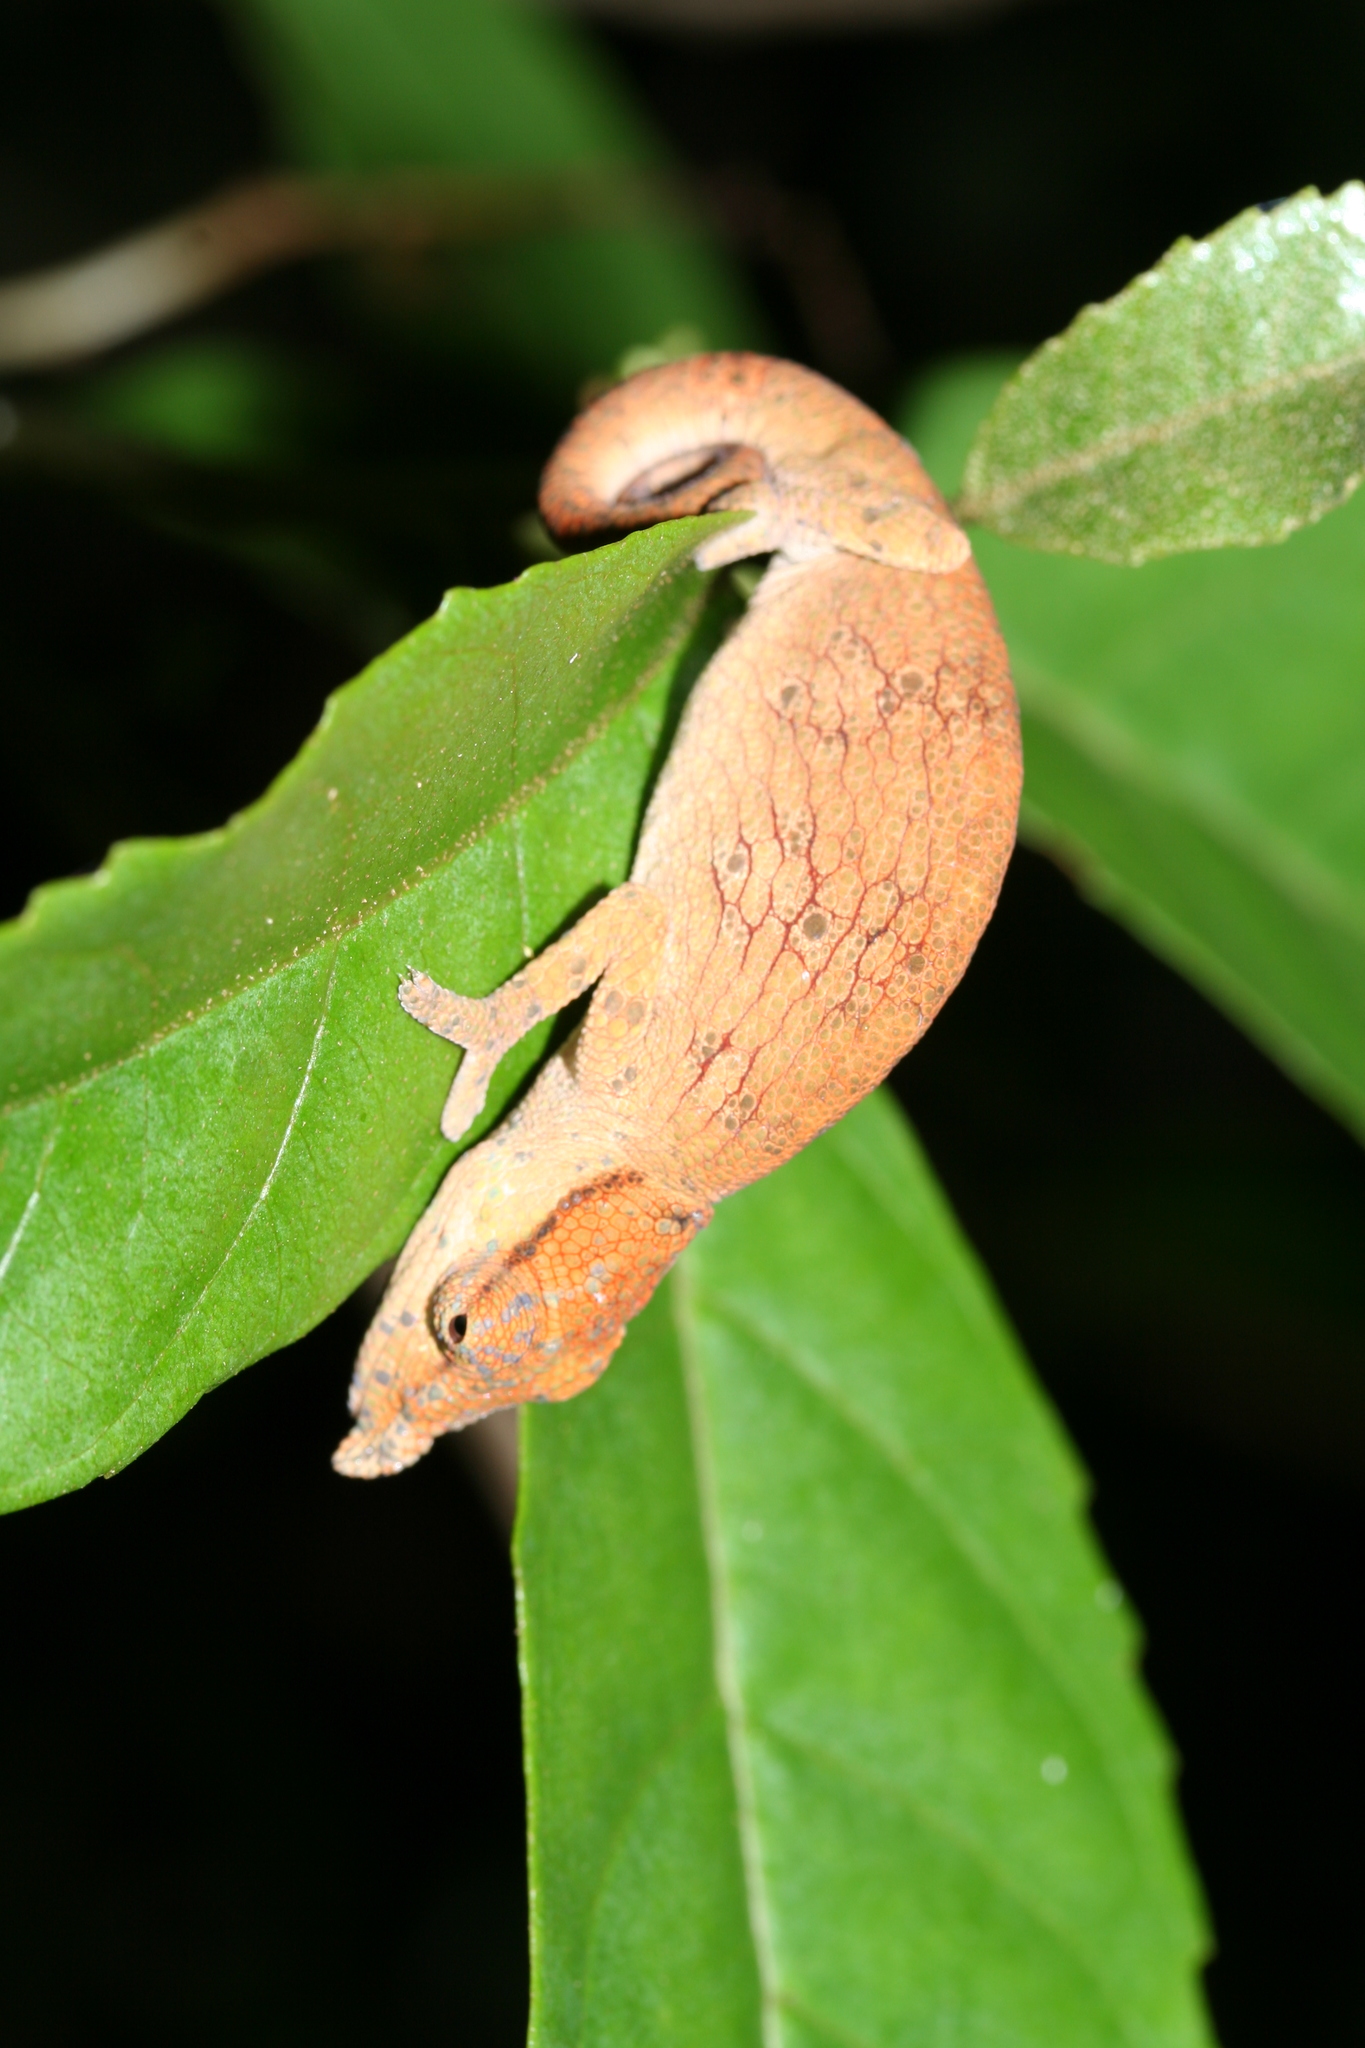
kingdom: Animalia
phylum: Chordata
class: Squamata
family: Chamaeleonidae
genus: Calumma
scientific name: Calumma tjiasmantoi
